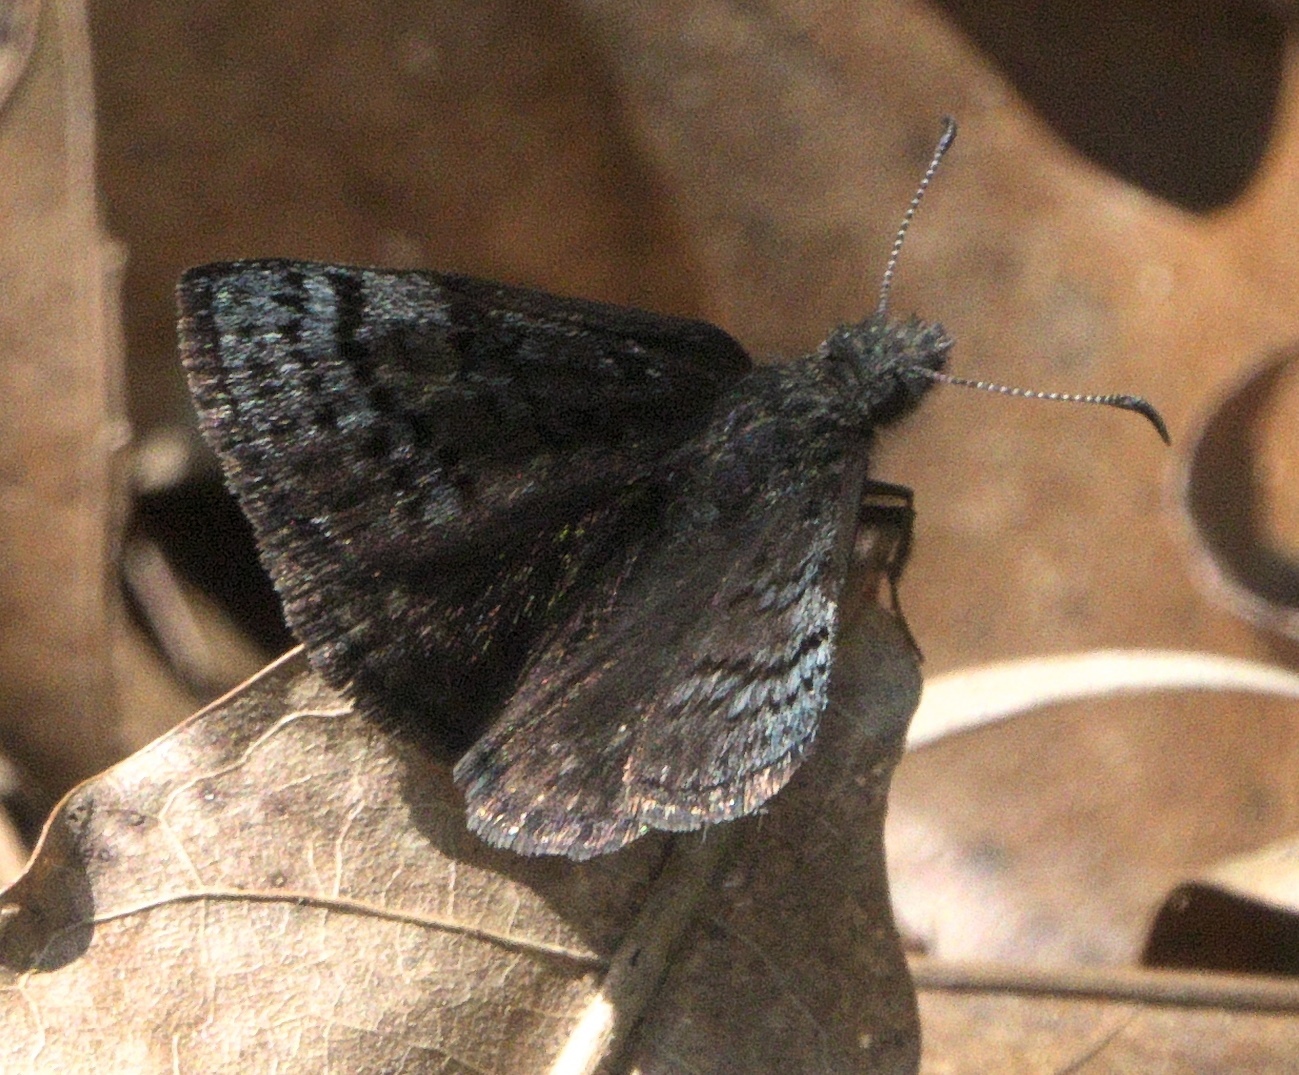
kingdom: Animalia
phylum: Arthropoda
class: Insecta
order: Lepidoptera
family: Hesperiidae
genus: Erynnis
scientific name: Erynnis brizo
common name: Sleepy duskywing
